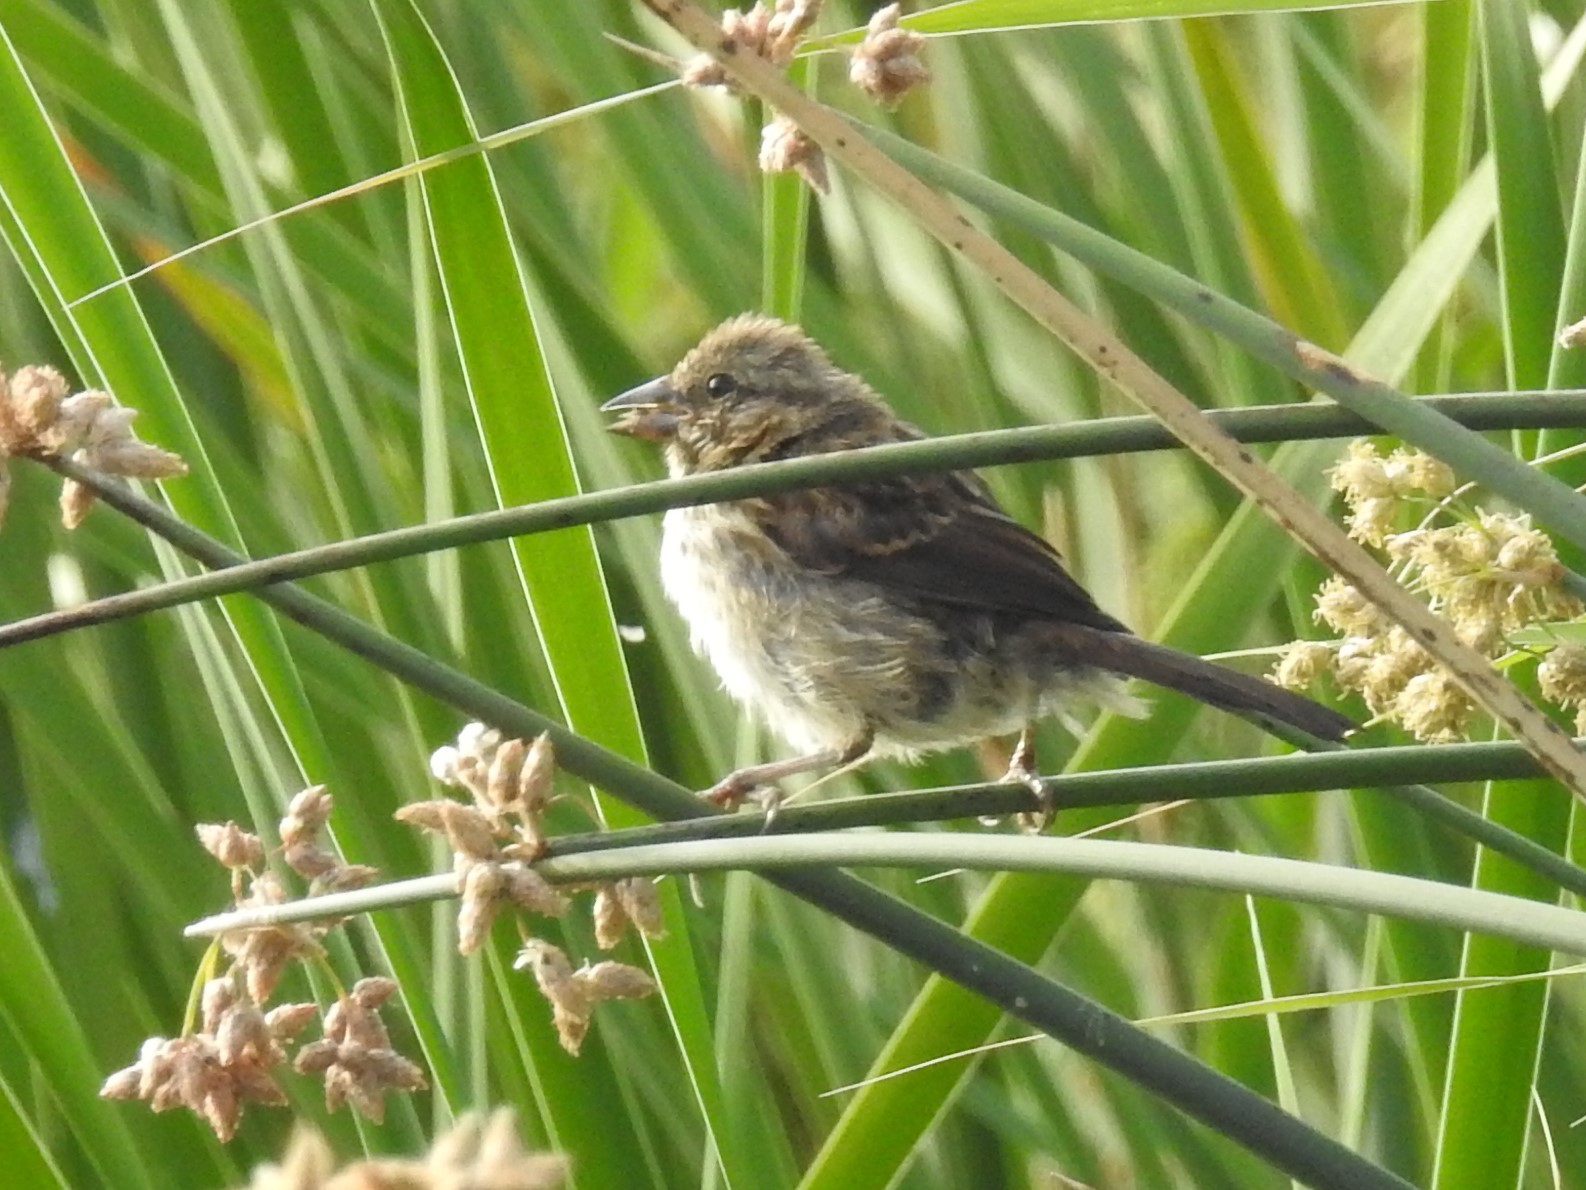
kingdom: Animalia
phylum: Chordata
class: Aves
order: Passeriformes
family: Passerellidae
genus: Melospiza
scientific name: Melospiza melodia
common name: Song sparrow
